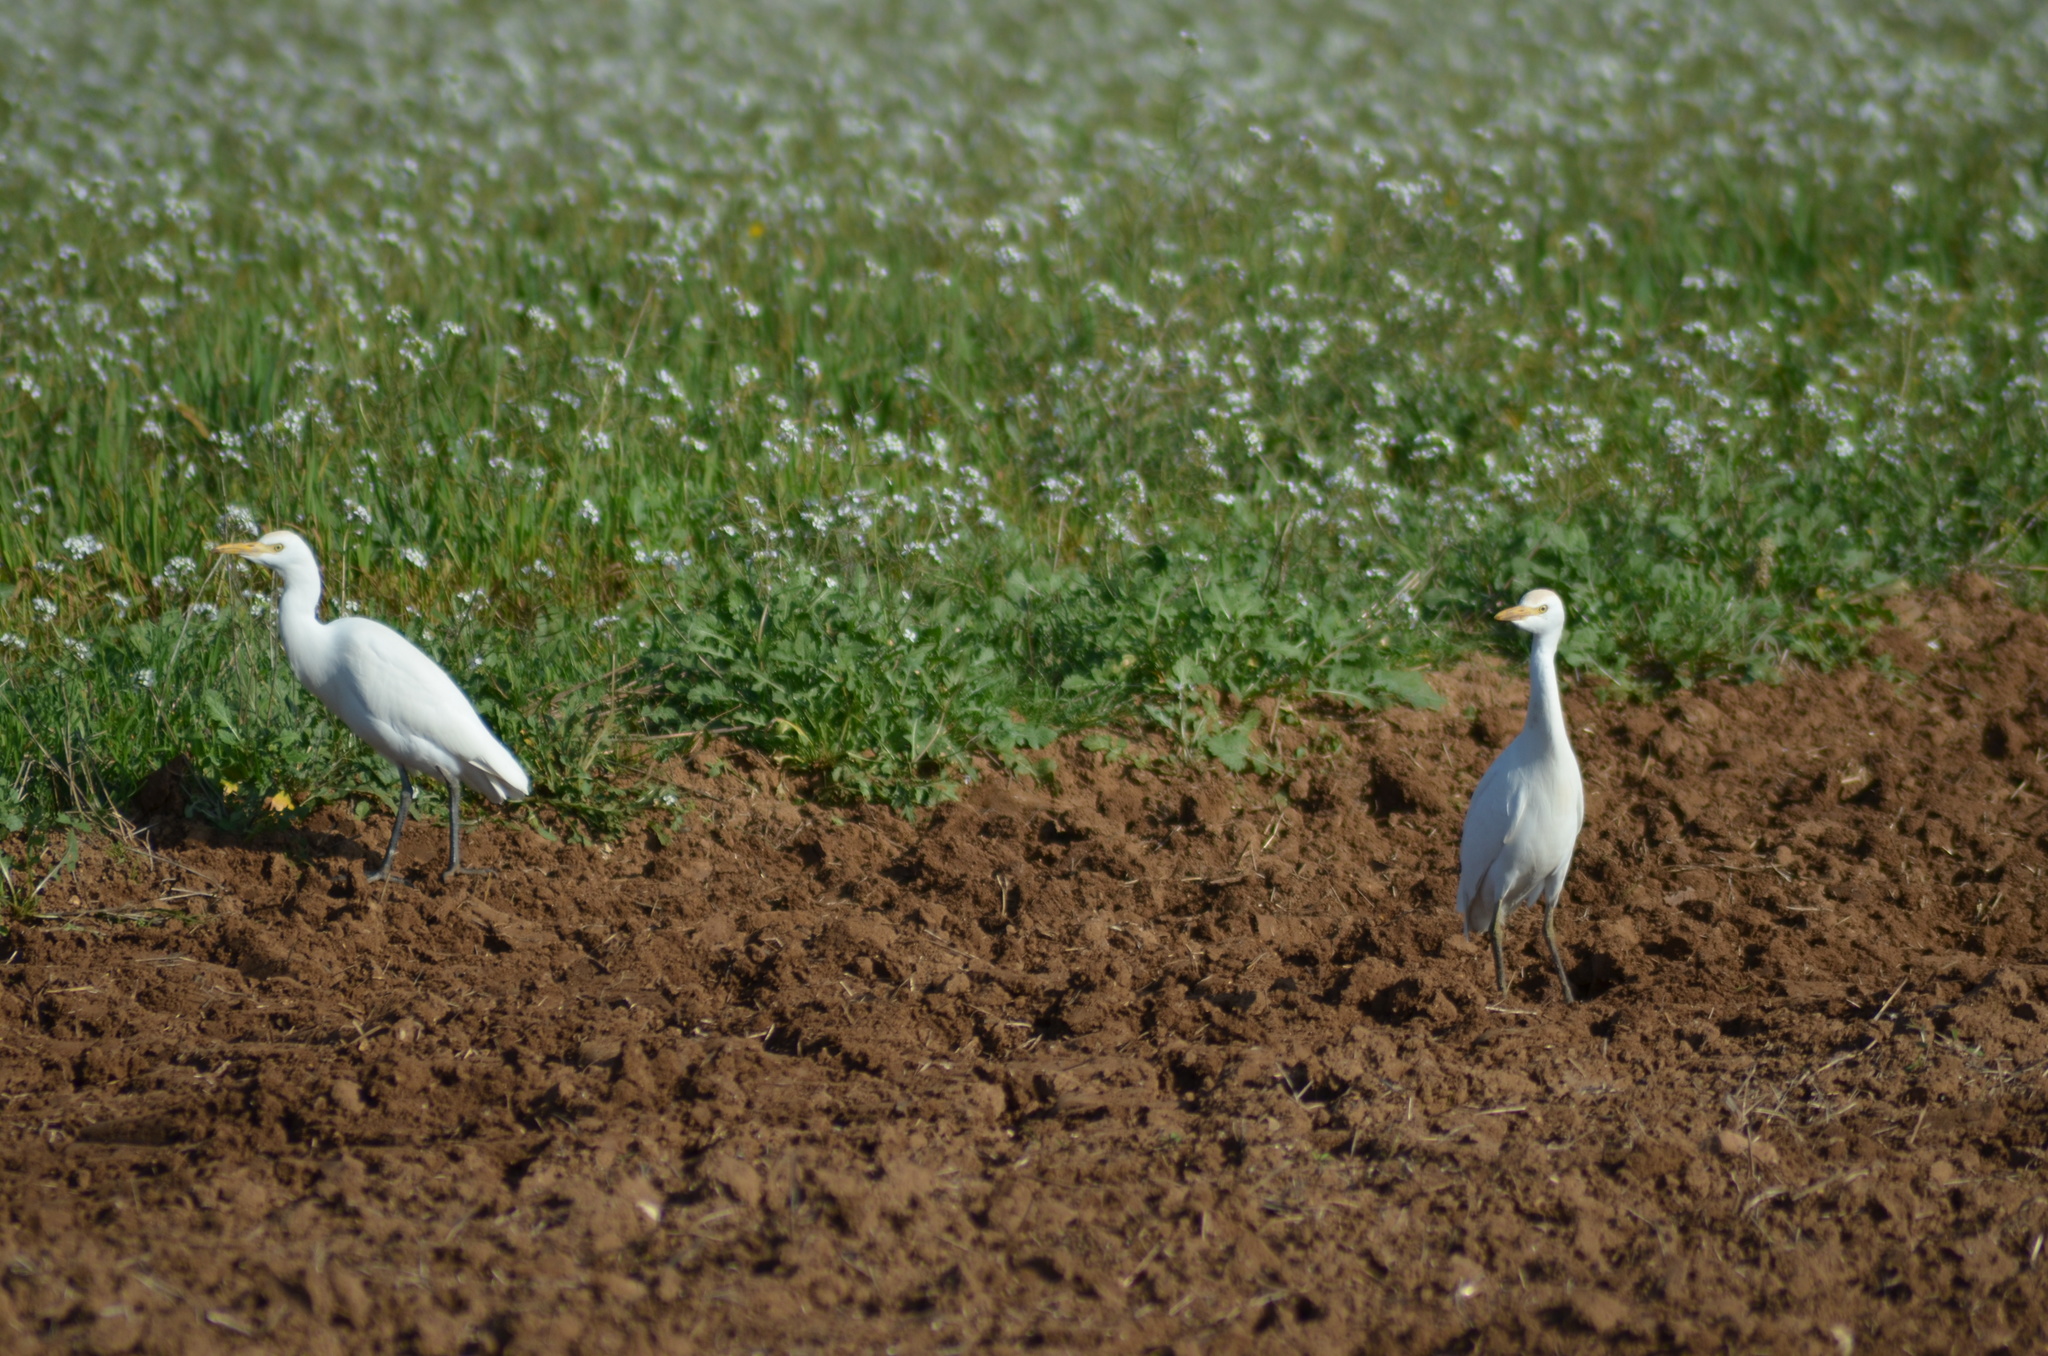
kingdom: Animalia
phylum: Chordata
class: Aves
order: Pelecaniformes
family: Ardeidae
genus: Bubulcus
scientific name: Bubulcus ibis
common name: Cattle egret
